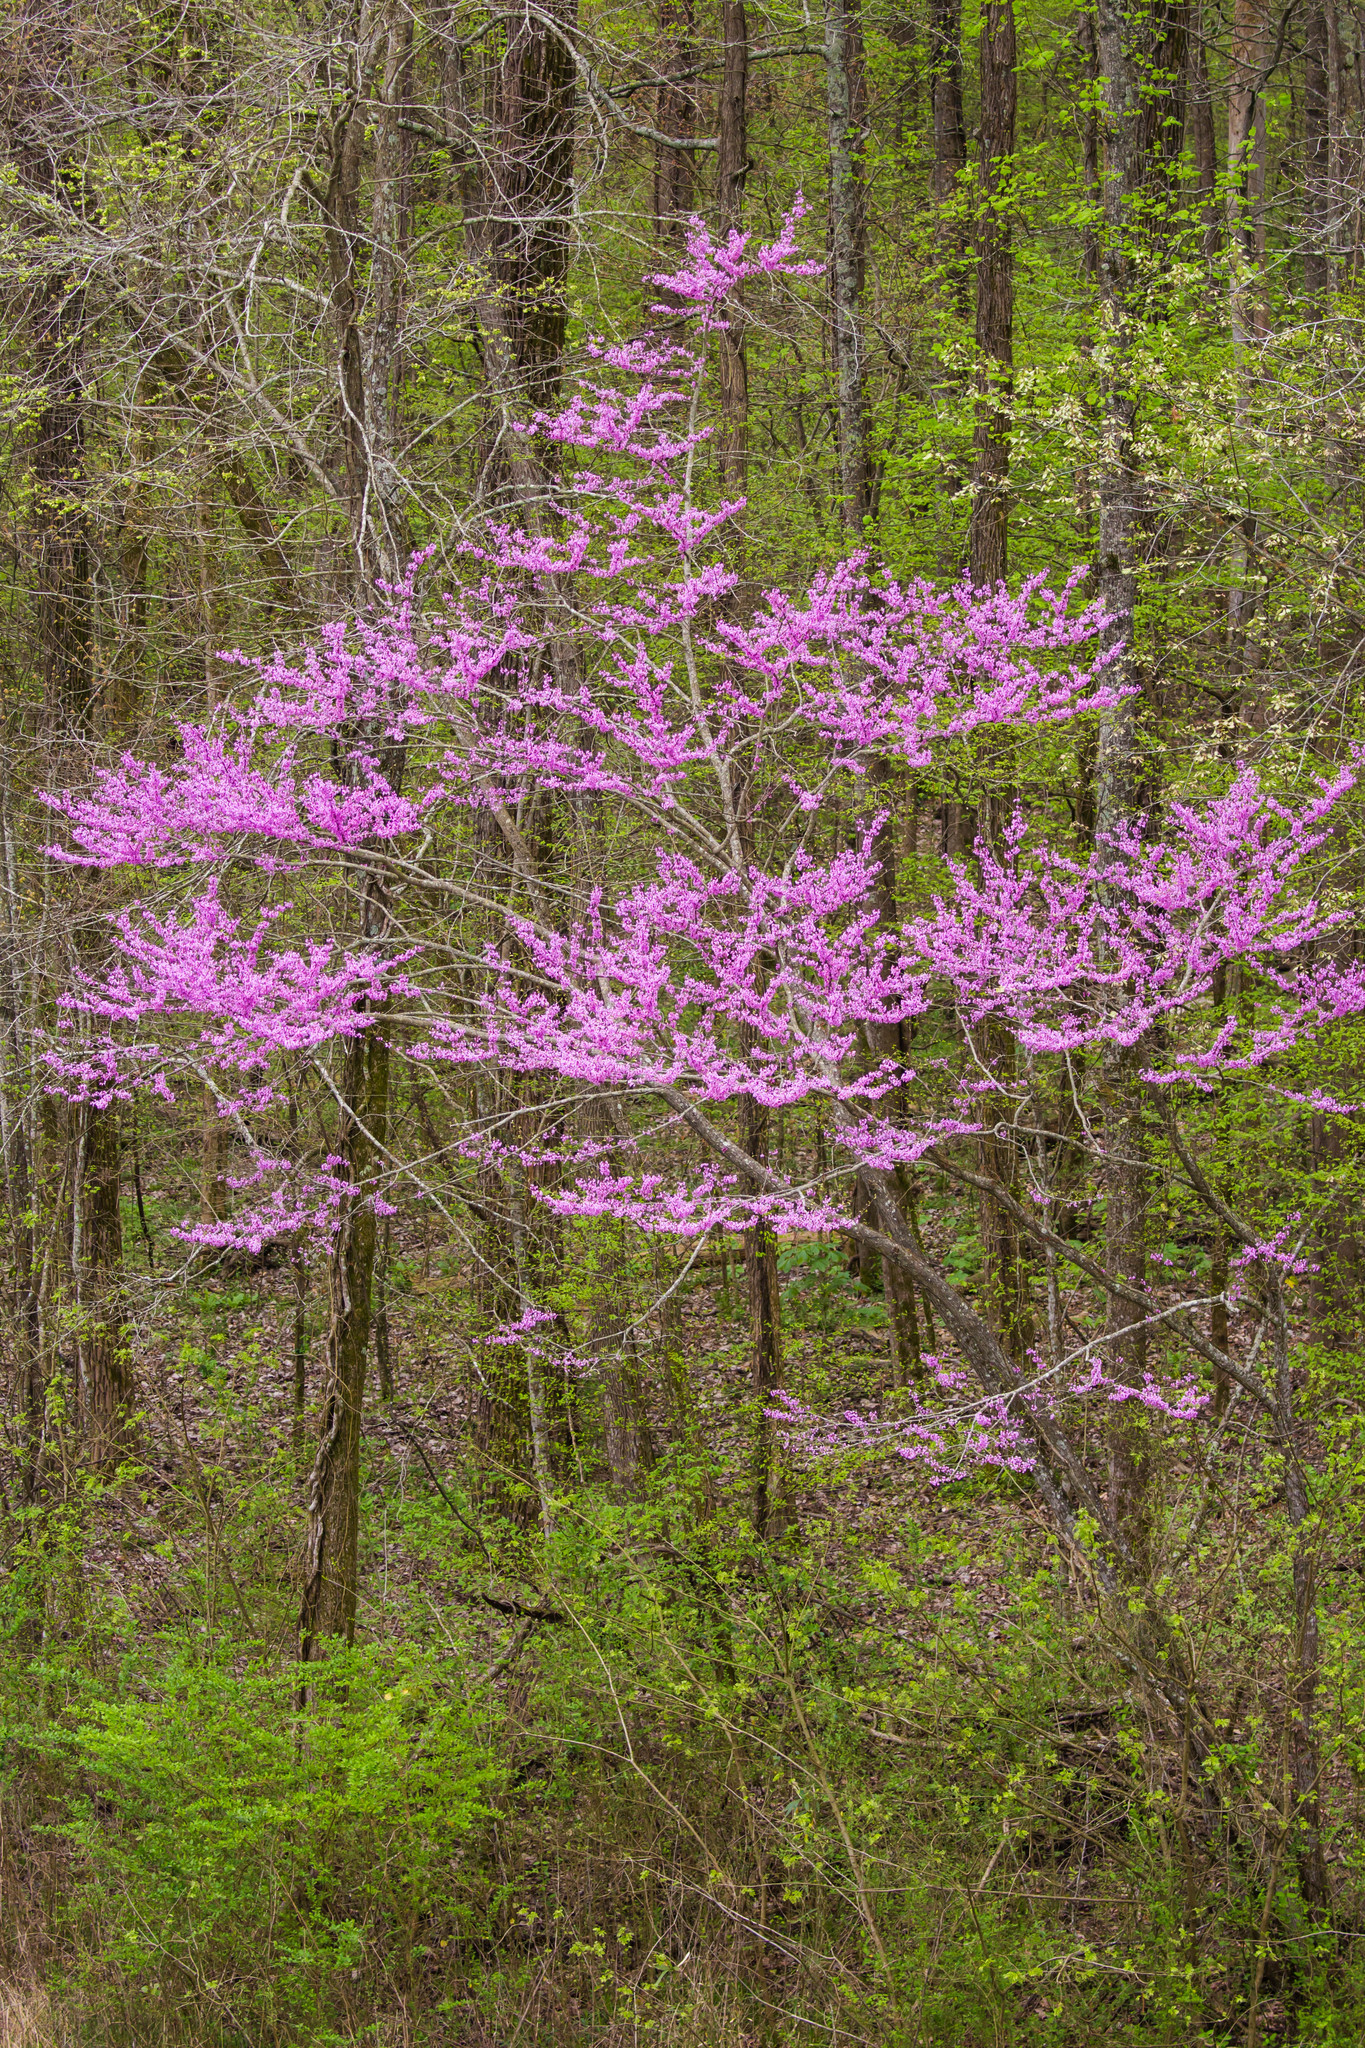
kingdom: Plantae
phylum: Tracheophyta
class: Magnoliopsida
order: Fabales
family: Fabaceae
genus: Cercis
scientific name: Cercis canadensis
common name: Eastern redbud
